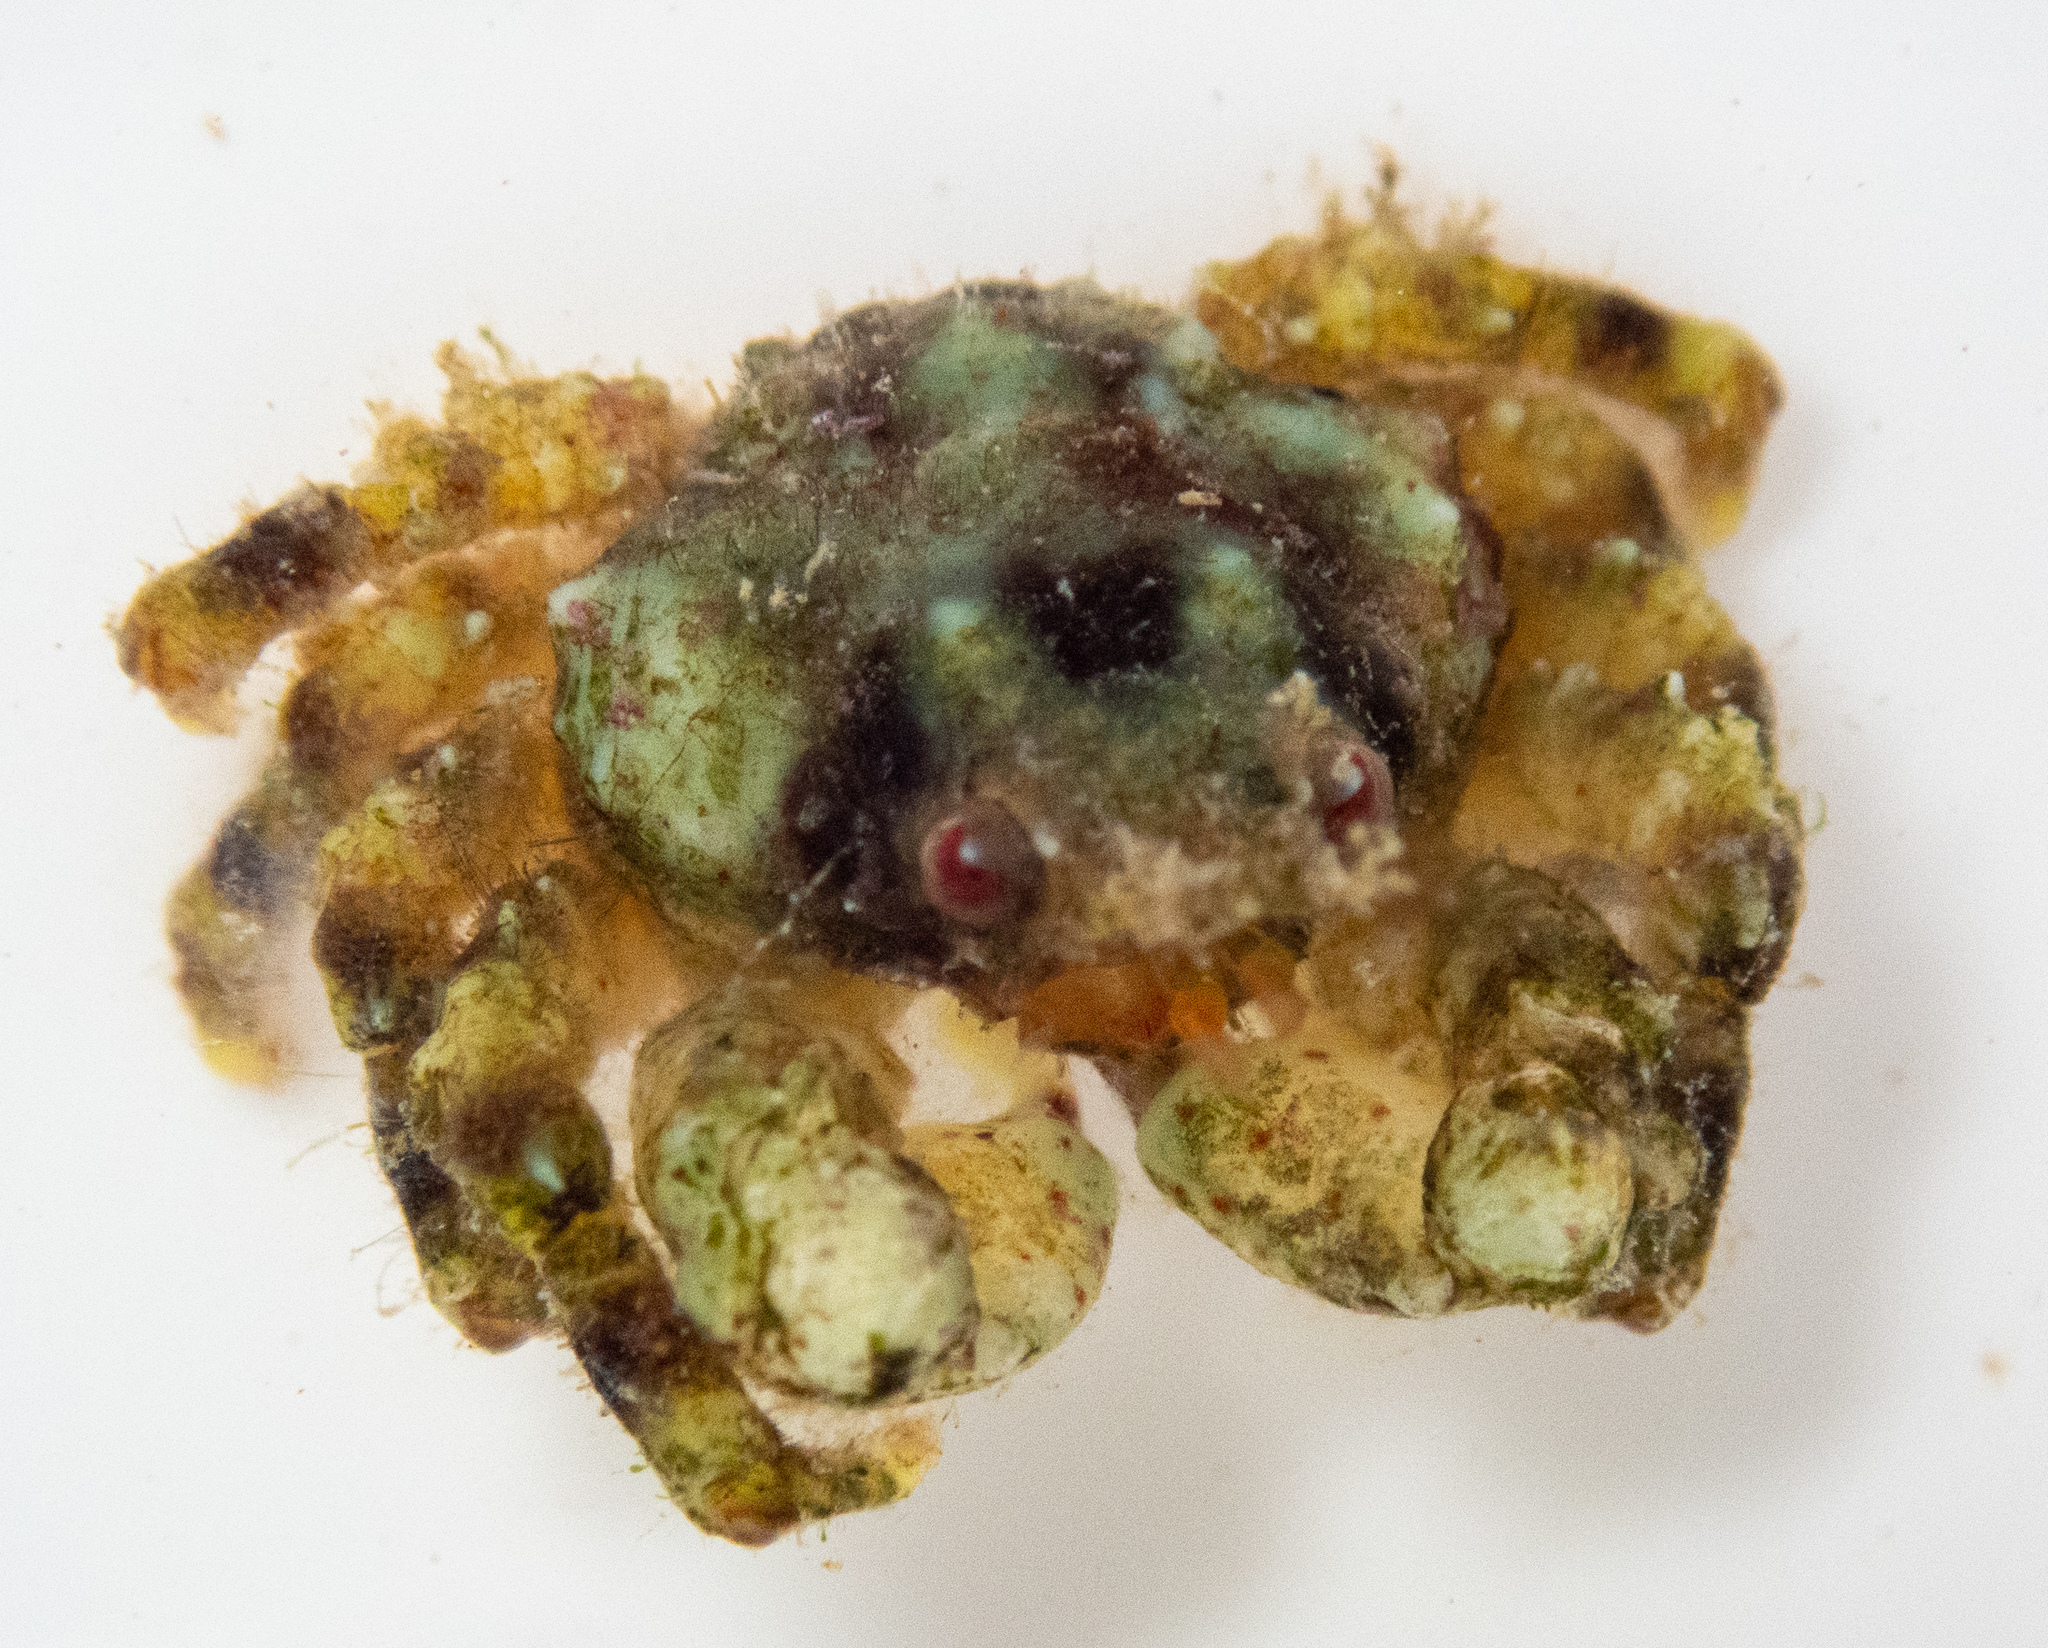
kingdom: Animalia
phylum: Arthropoda
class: Malacostraca
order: Decapoda
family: Dromiidae
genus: Tumidodromia
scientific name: Tumidodromia dormia
